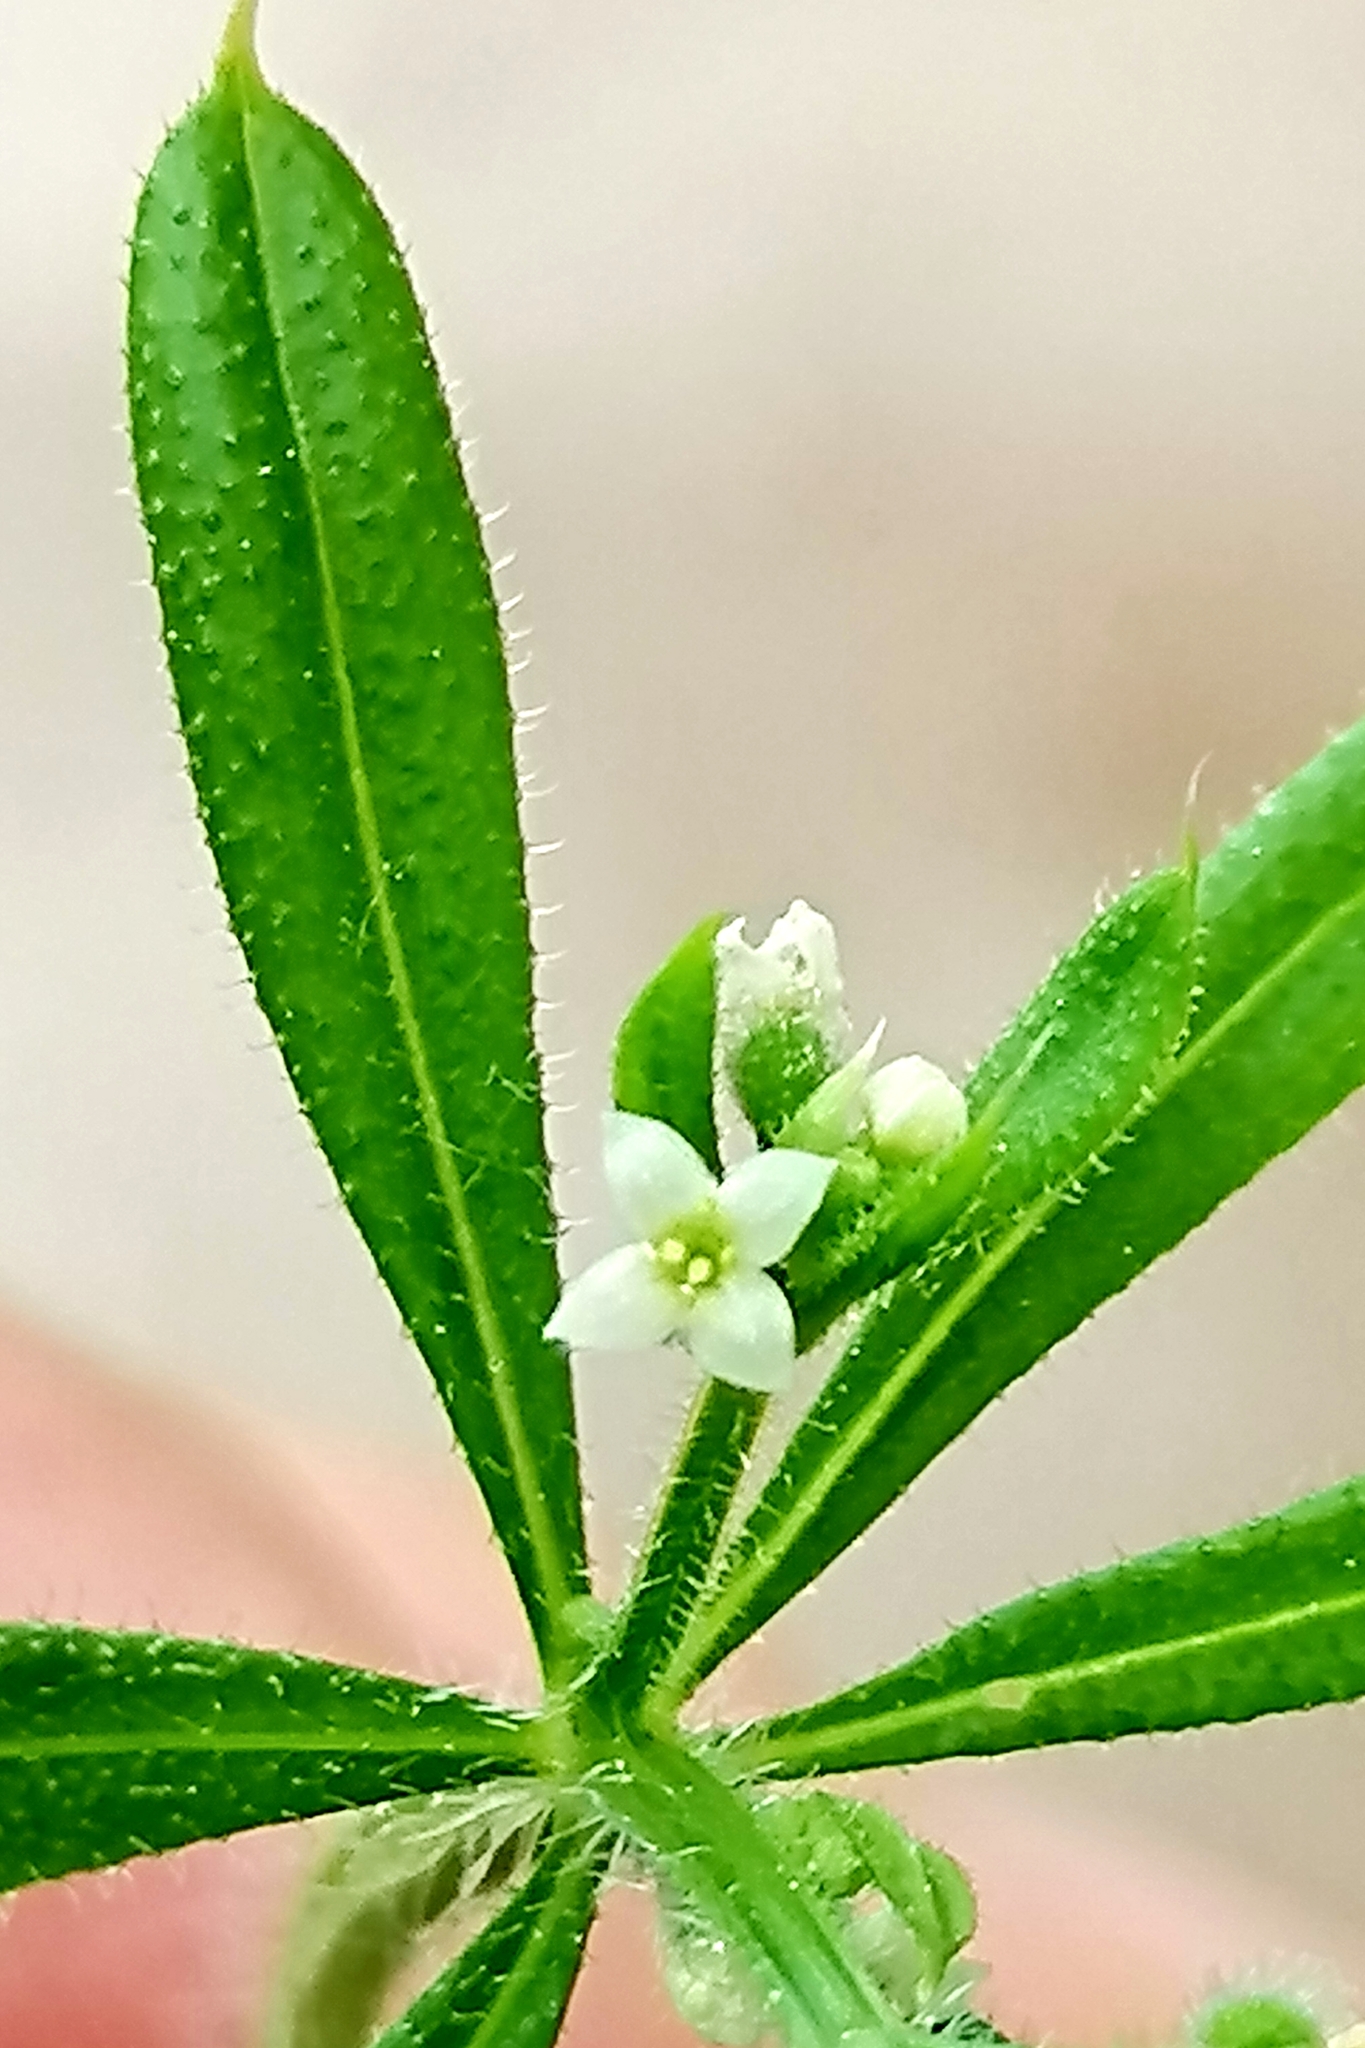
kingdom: Plantae
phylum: Tracheophyta
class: Magnoliopsida
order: Gentianales
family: Rubiaceae
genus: Galium
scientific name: Galium aparine
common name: Cleavers
